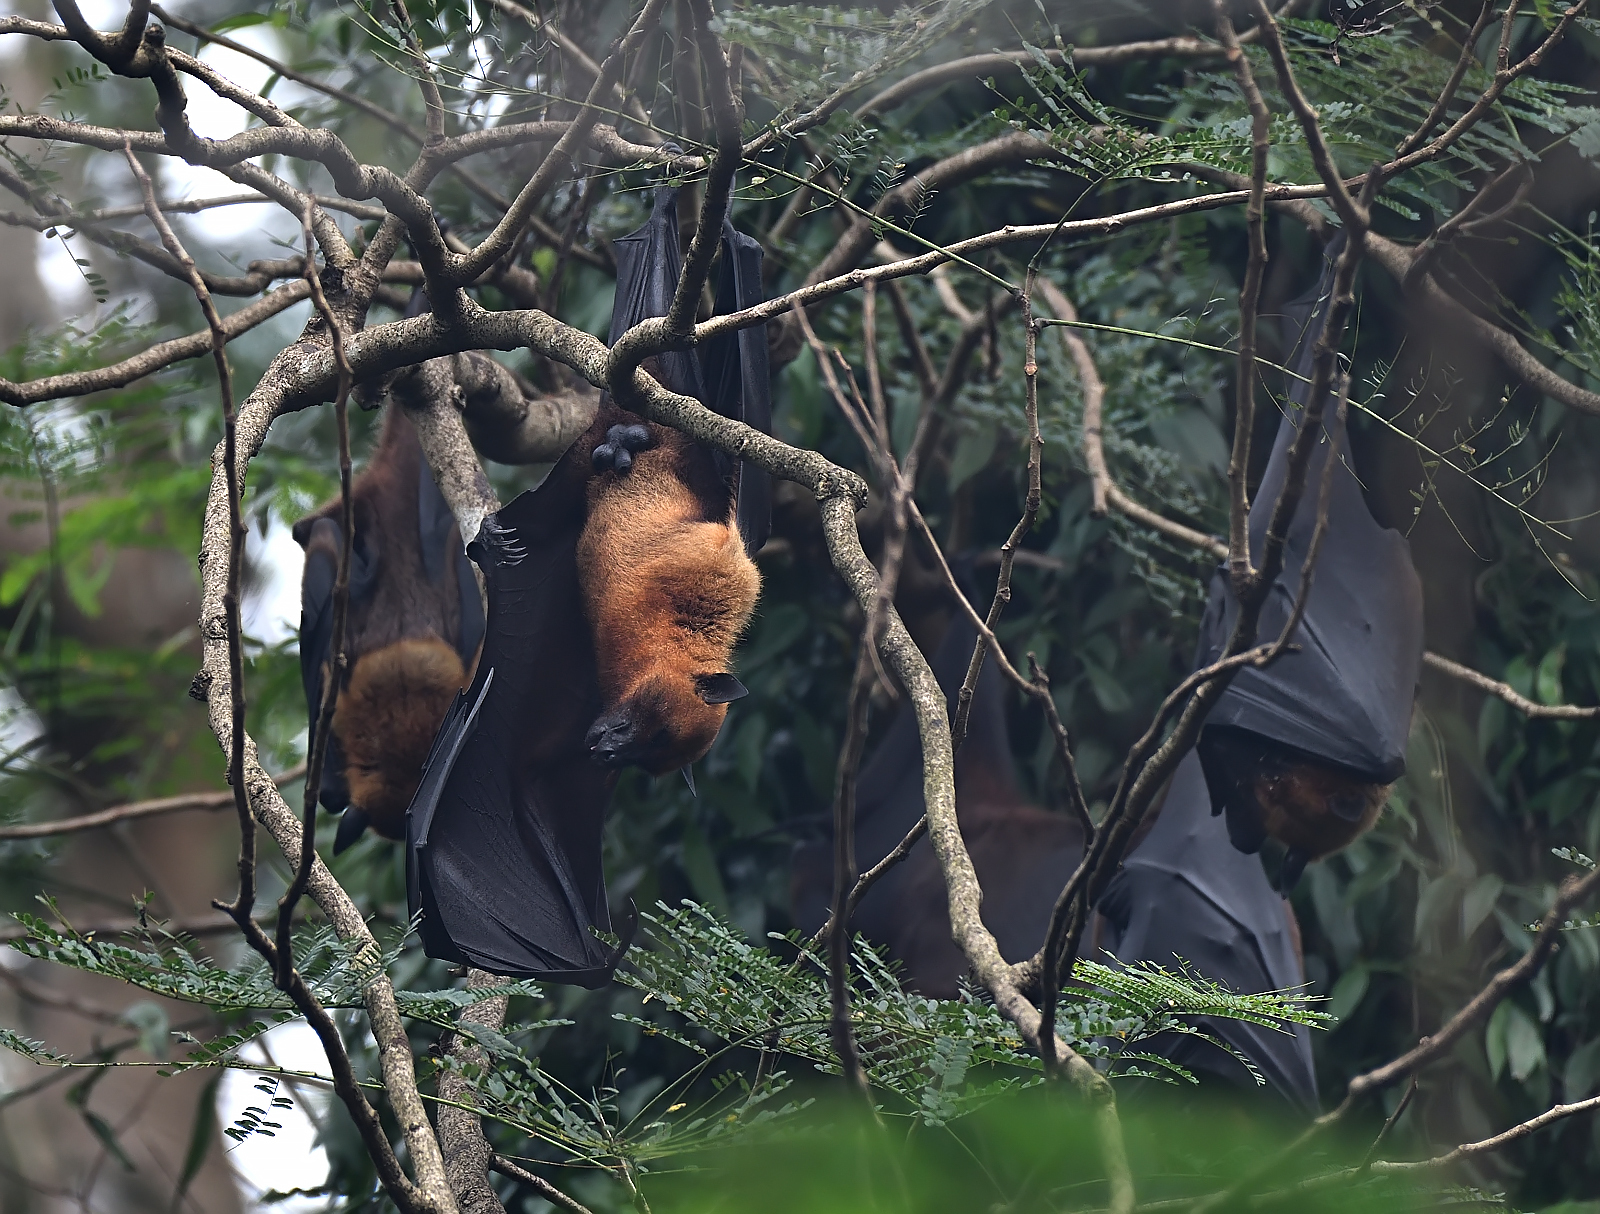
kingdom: Animalia
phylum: Chordata
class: Mammalia
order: Chiroptera
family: Pteropodidae
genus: Pteropus
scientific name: Pteropus vampyrus
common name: Large flying fox
